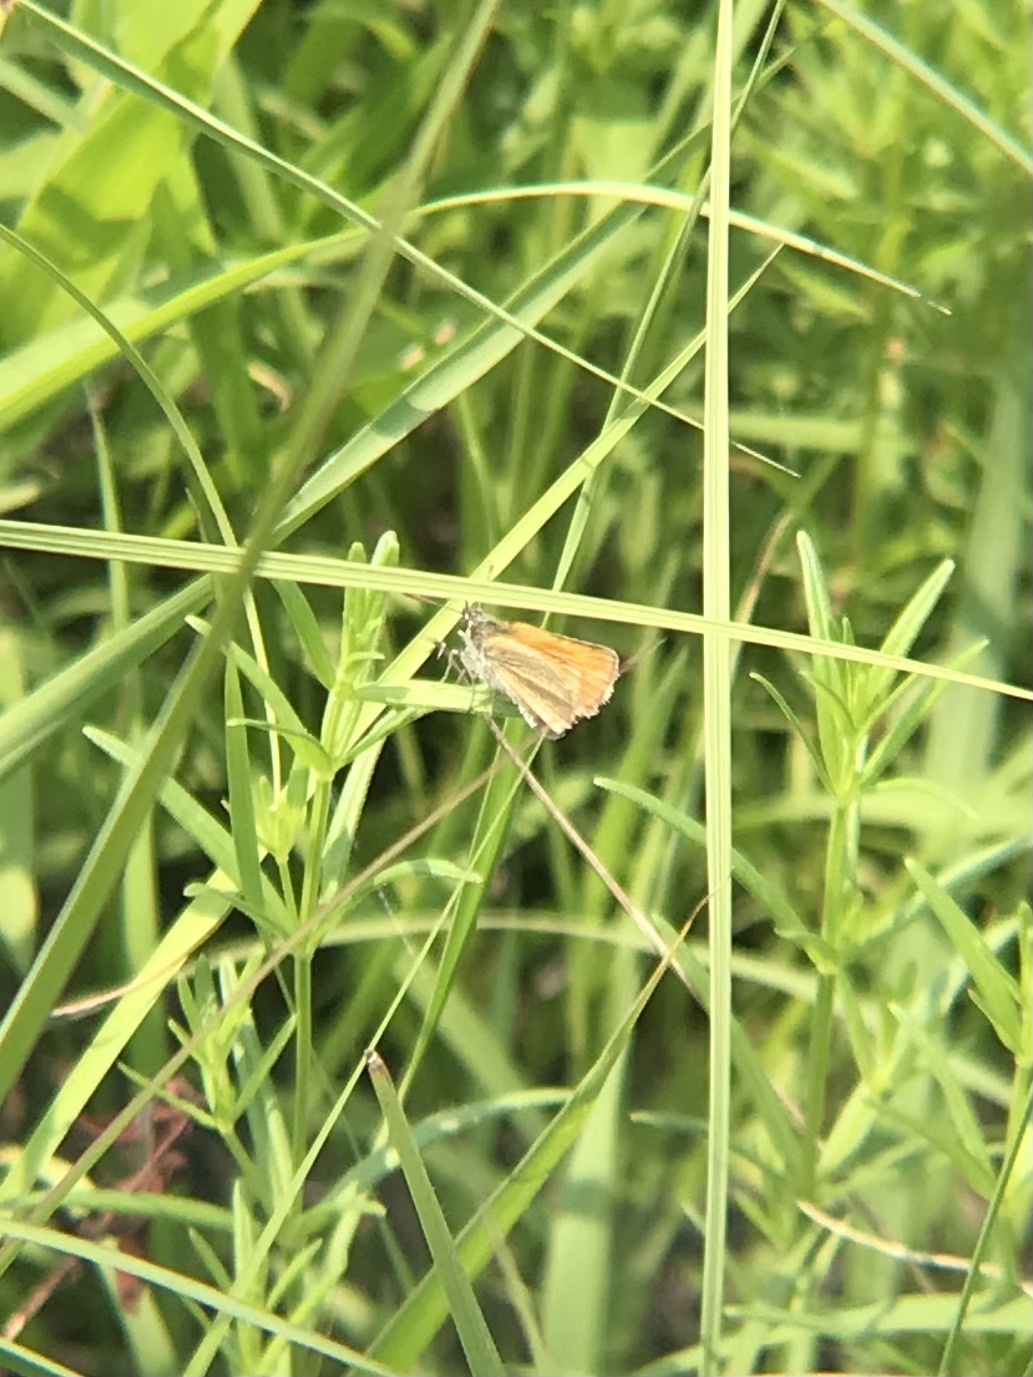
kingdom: Animalia
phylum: Arthropoda
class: Insecta
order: Lepidoptera
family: Hesperiidae
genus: Thymelicus
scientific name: Thymelicus lineola
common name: Essex skipper
